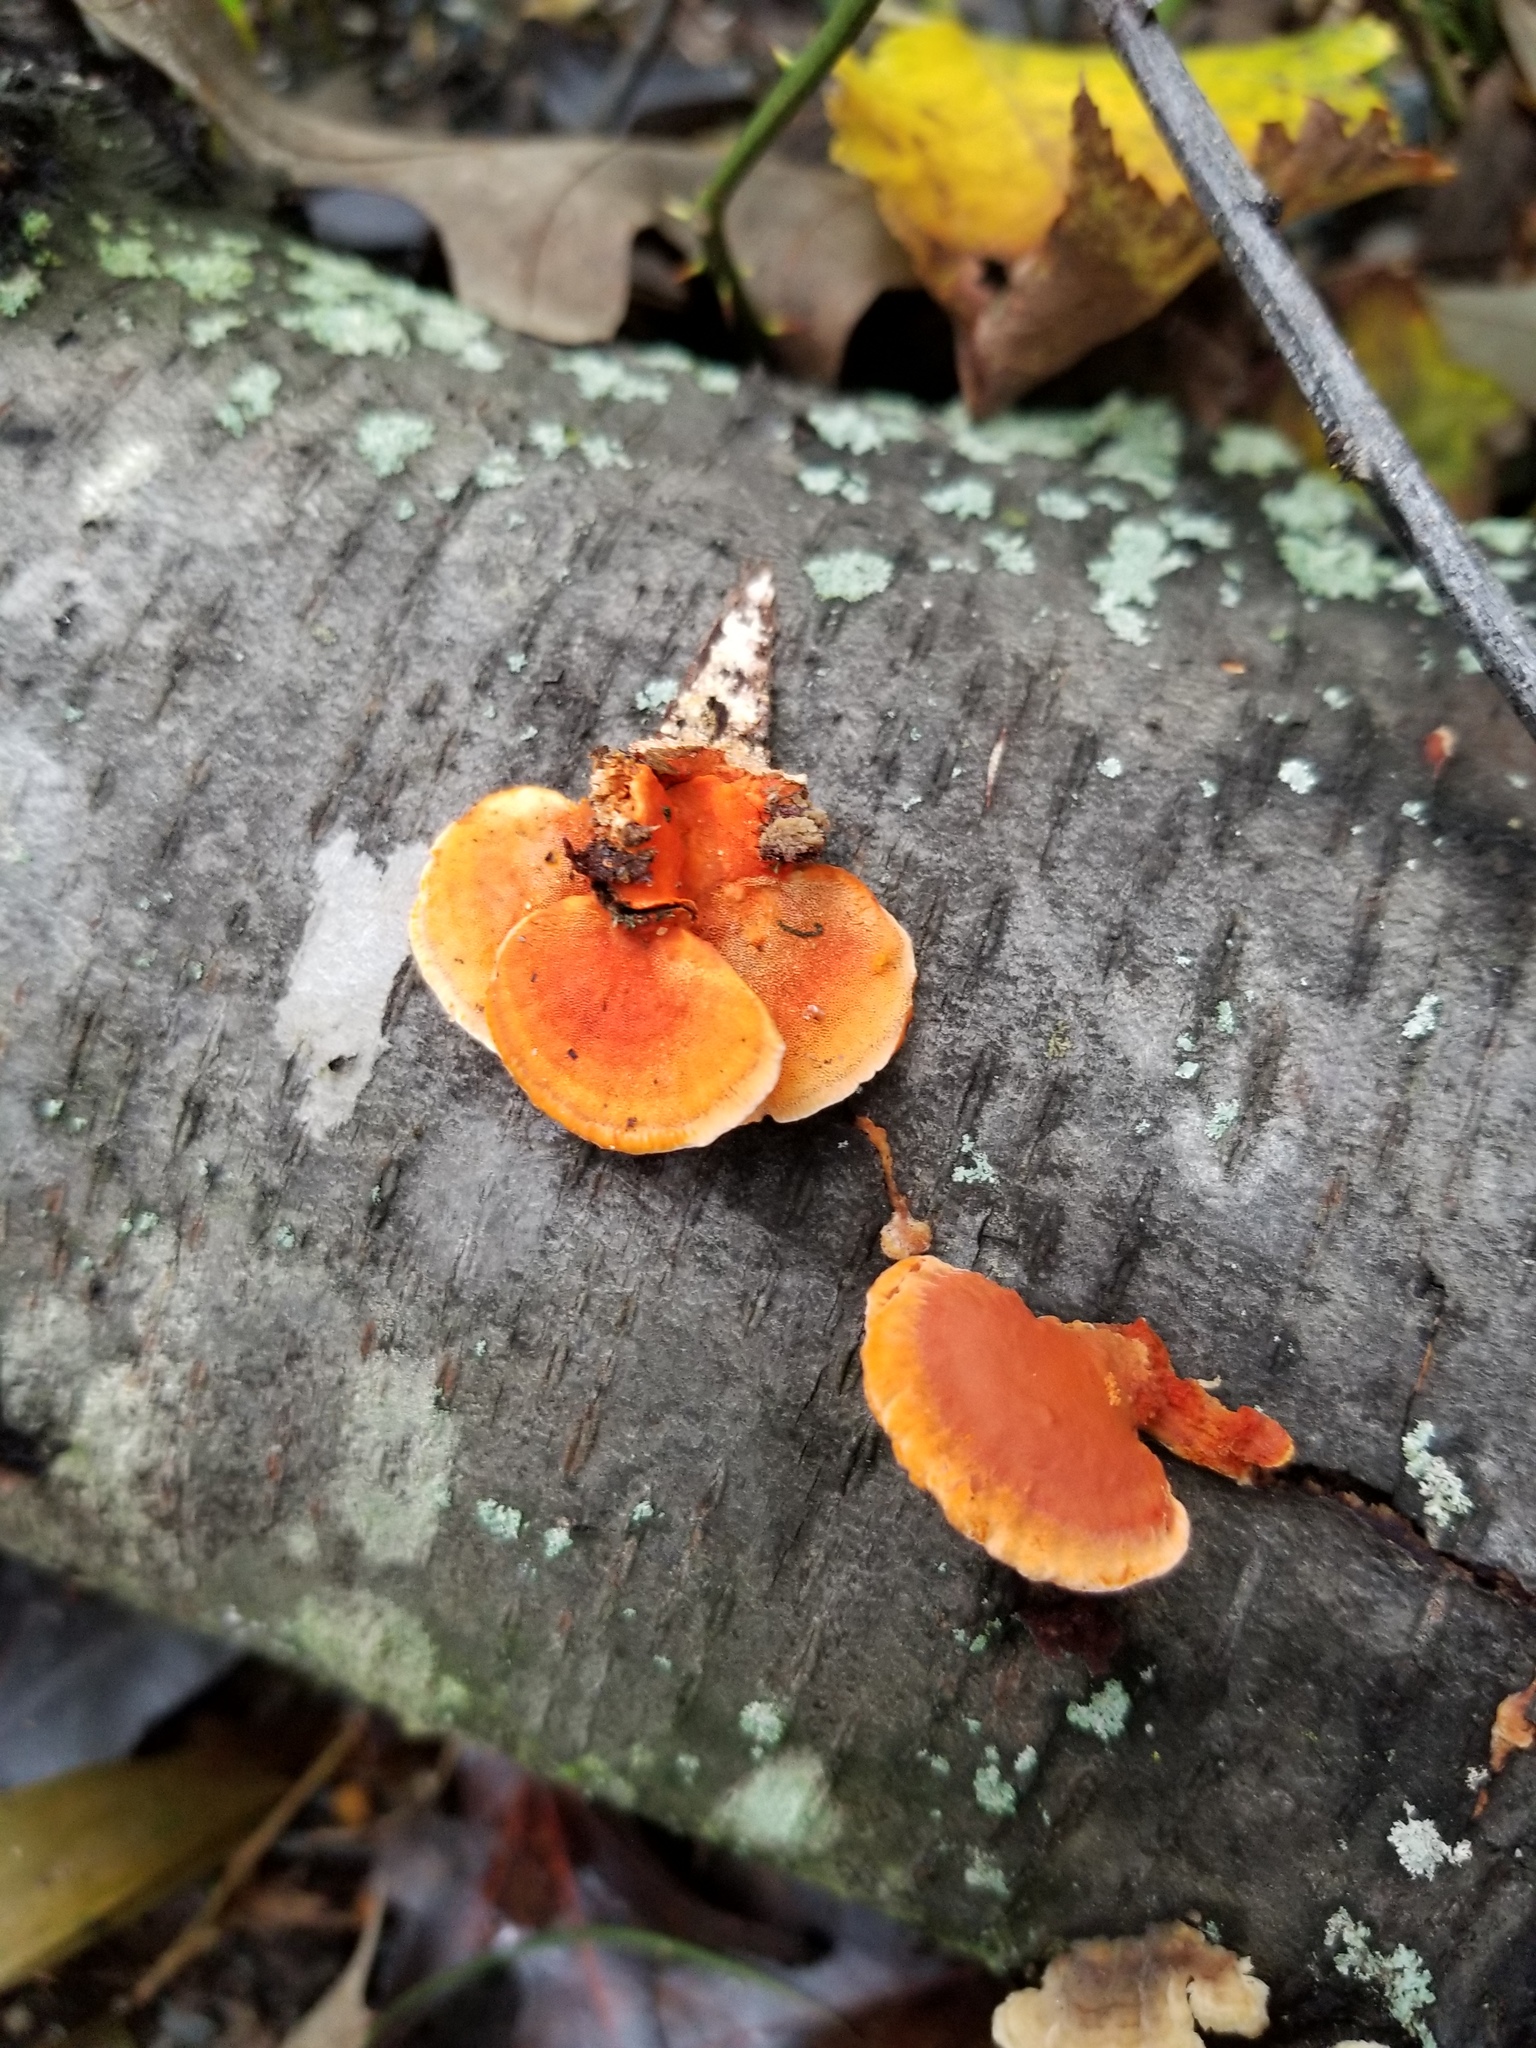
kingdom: Fungi
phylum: Basidiomycota
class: Agaricomycetes
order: Polyporales
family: Polyporaceae
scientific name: Polyporaceae
